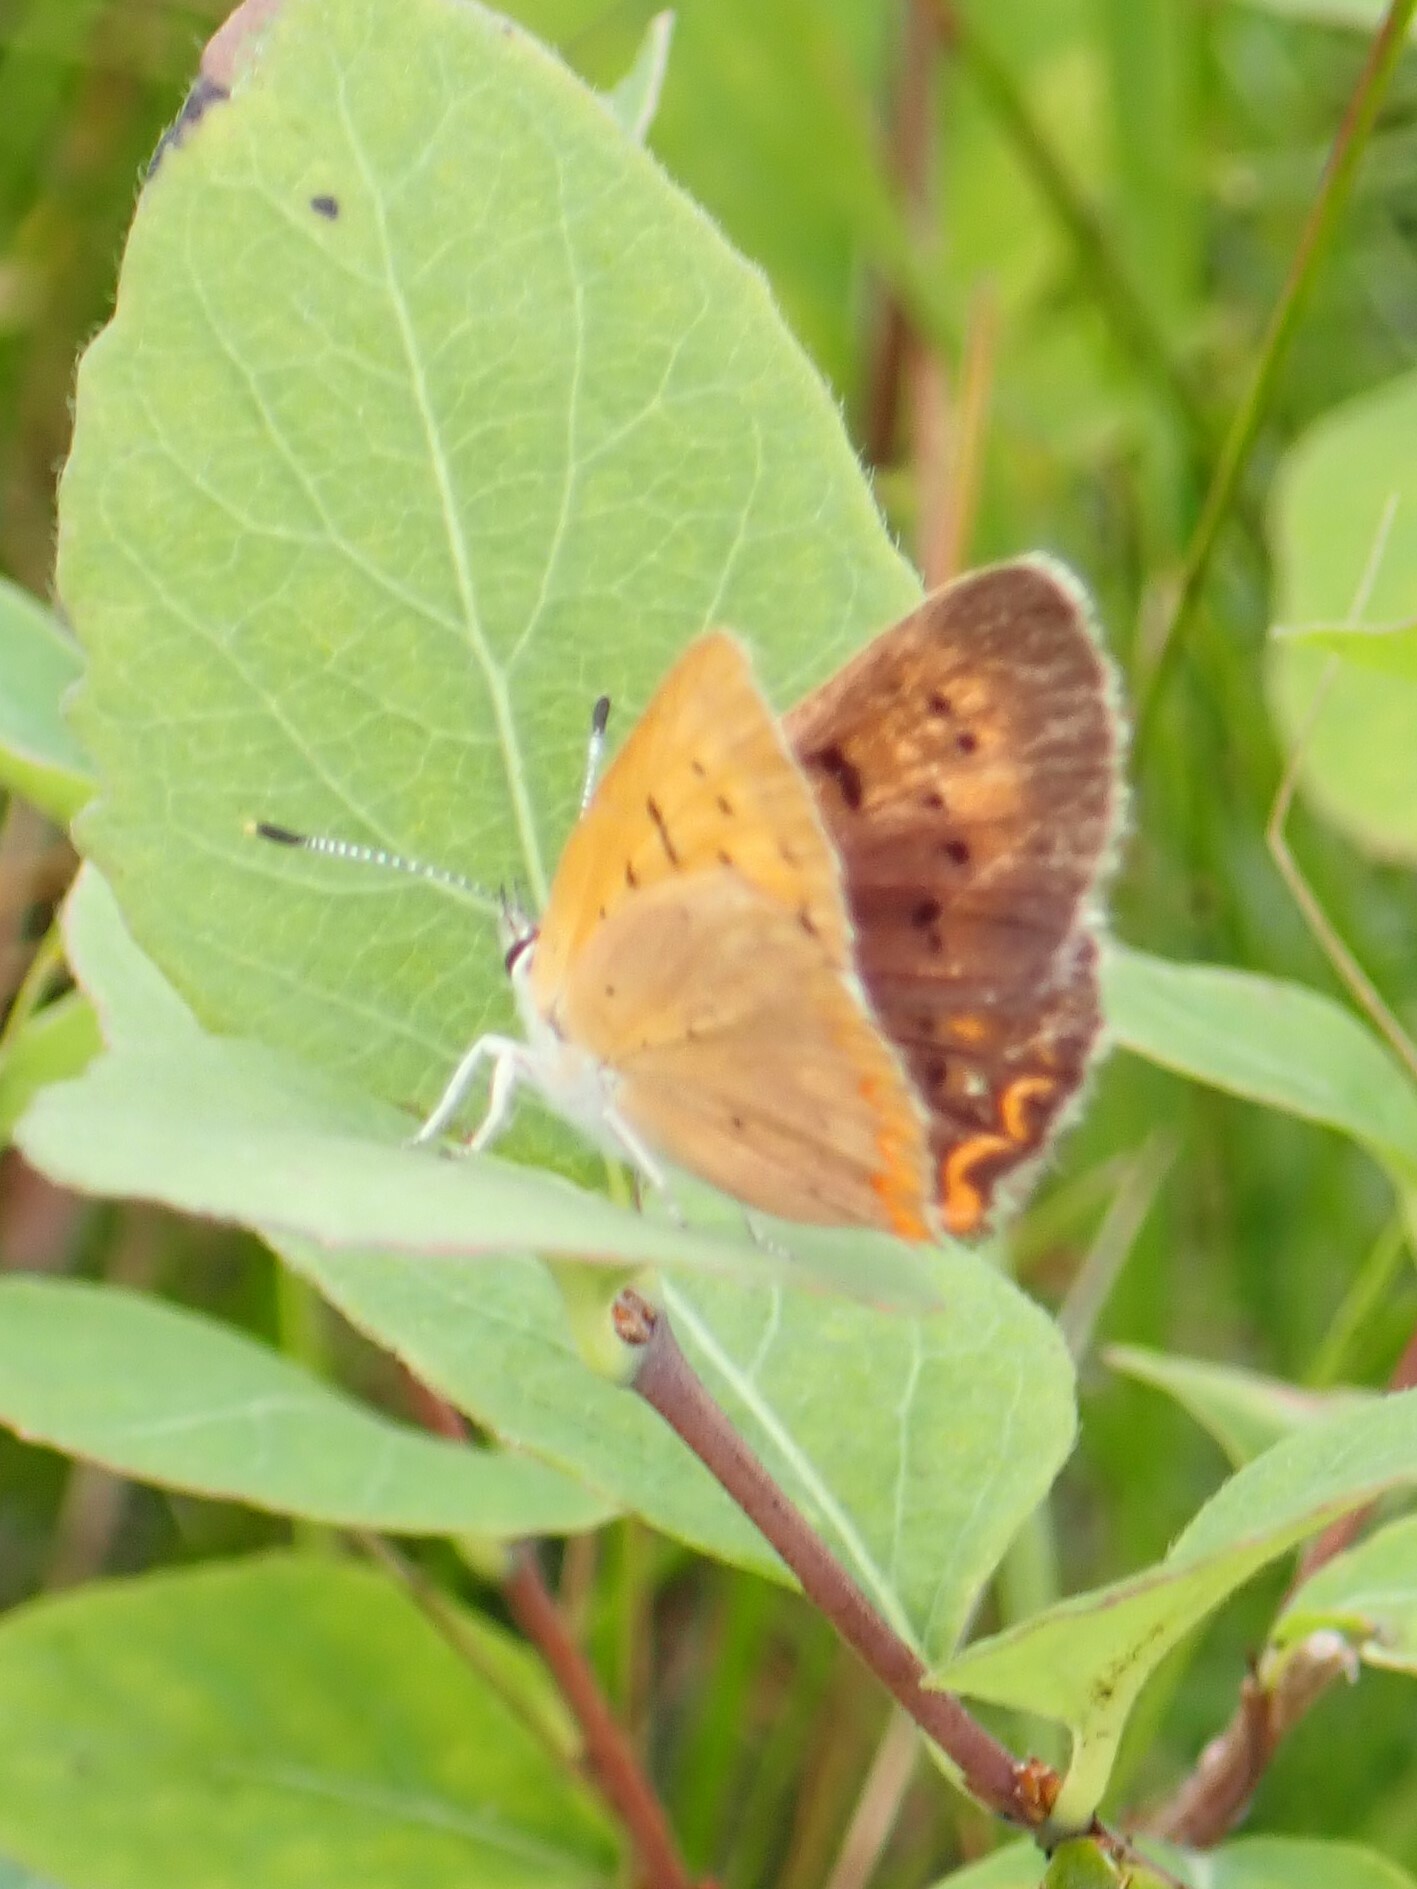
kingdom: Animalia
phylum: Arthropoda
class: Insecta
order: Lepidoptera
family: Lycaenidae
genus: Tharsalea
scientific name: Tharsalea dorcas
